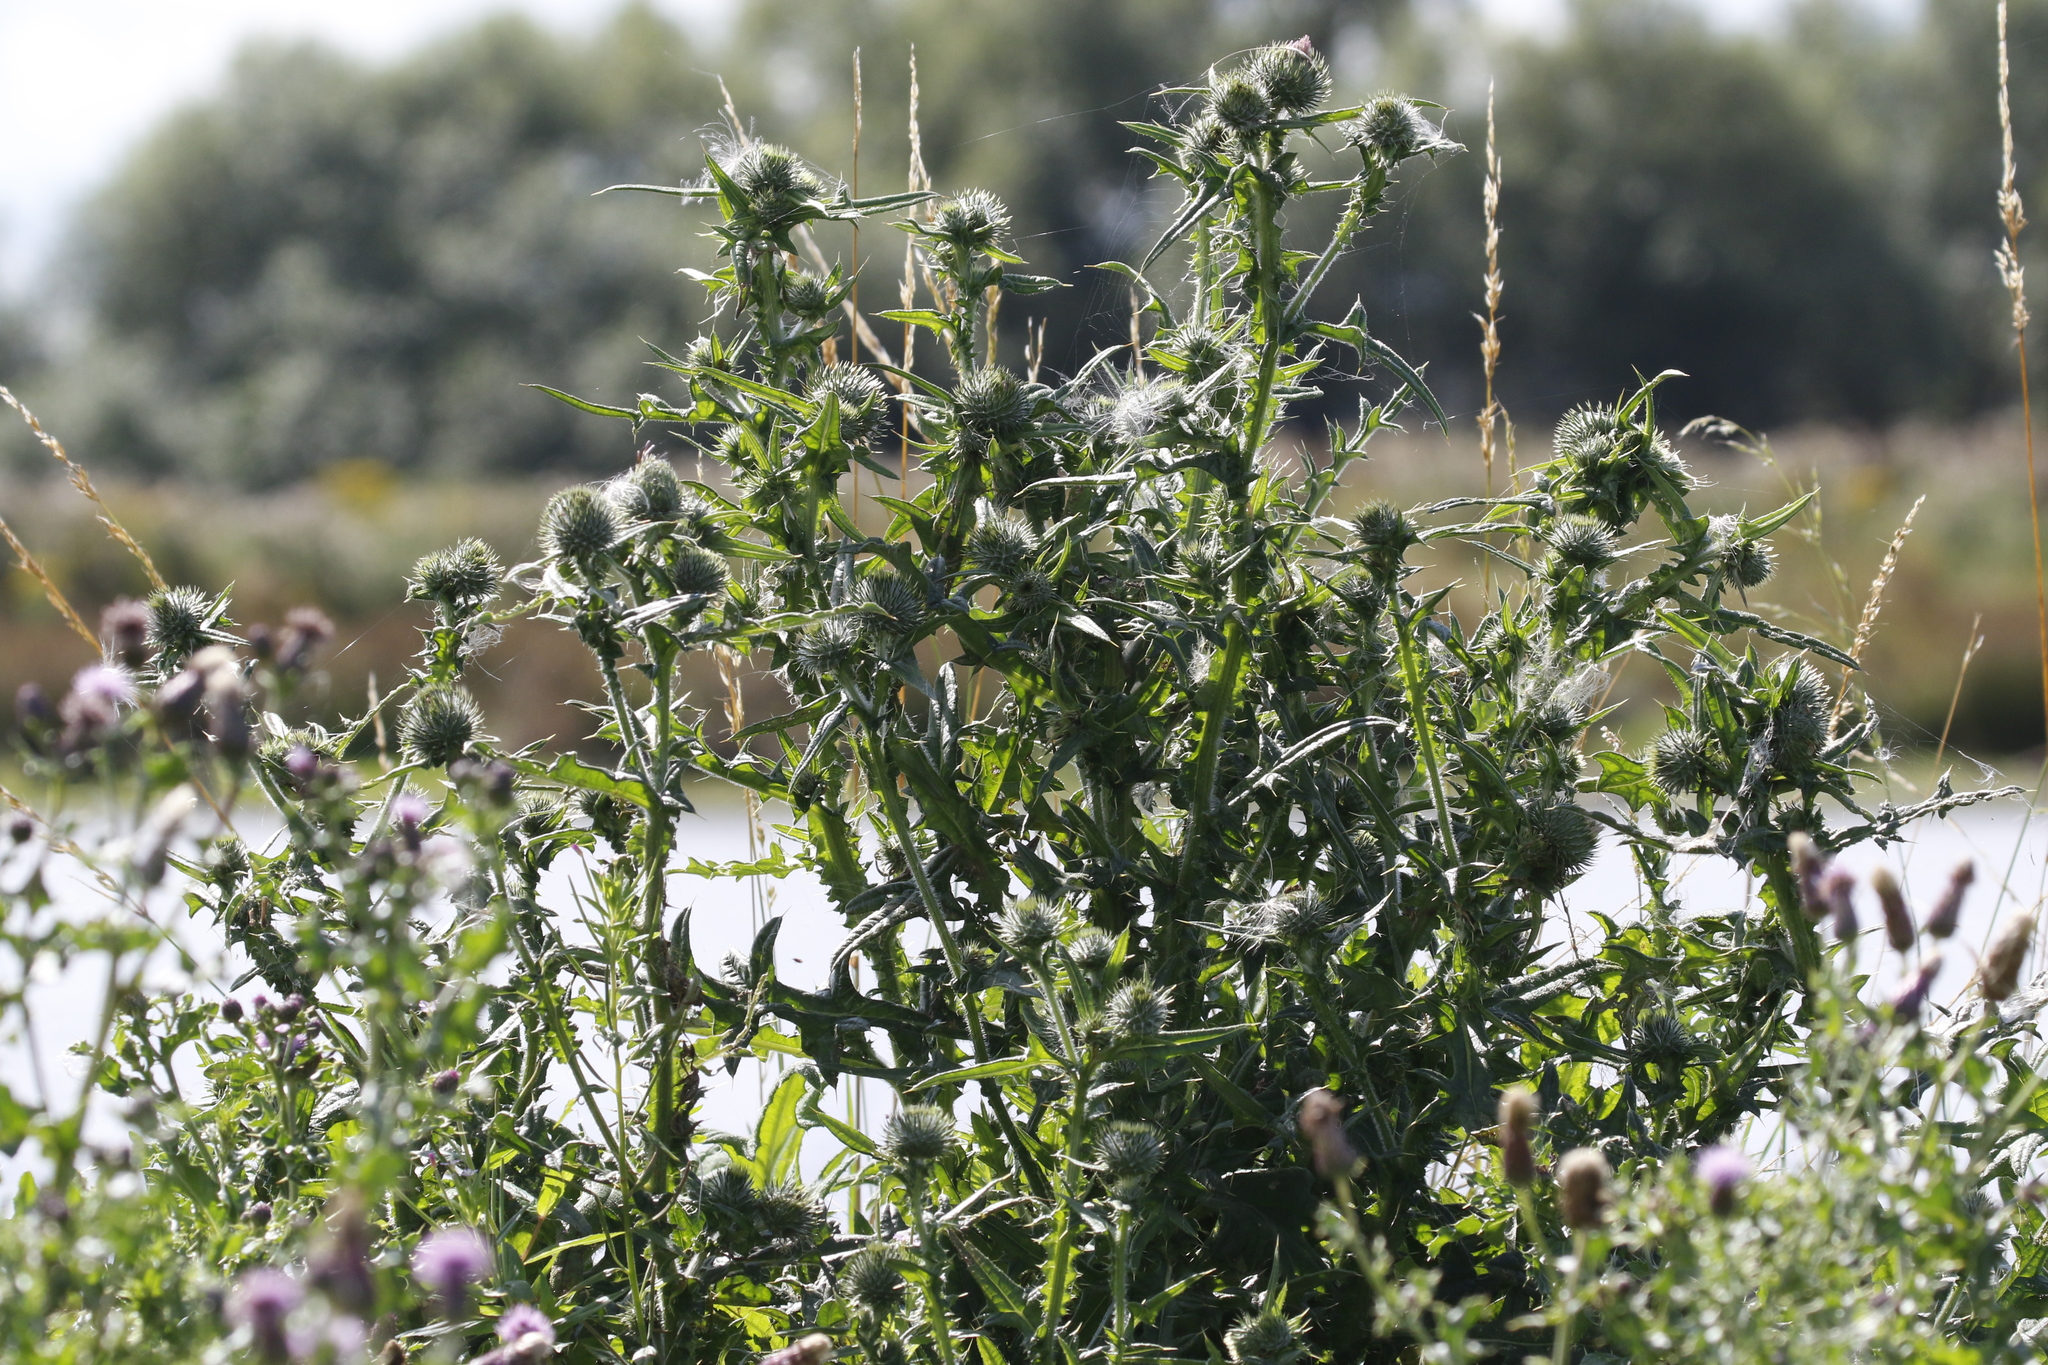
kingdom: Plantae
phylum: Tracheophyta
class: Magnoliopsida
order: Asterales
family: Asteraceae
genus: Cirsium
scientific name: Cirsium vulgare
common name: Bull thistle
